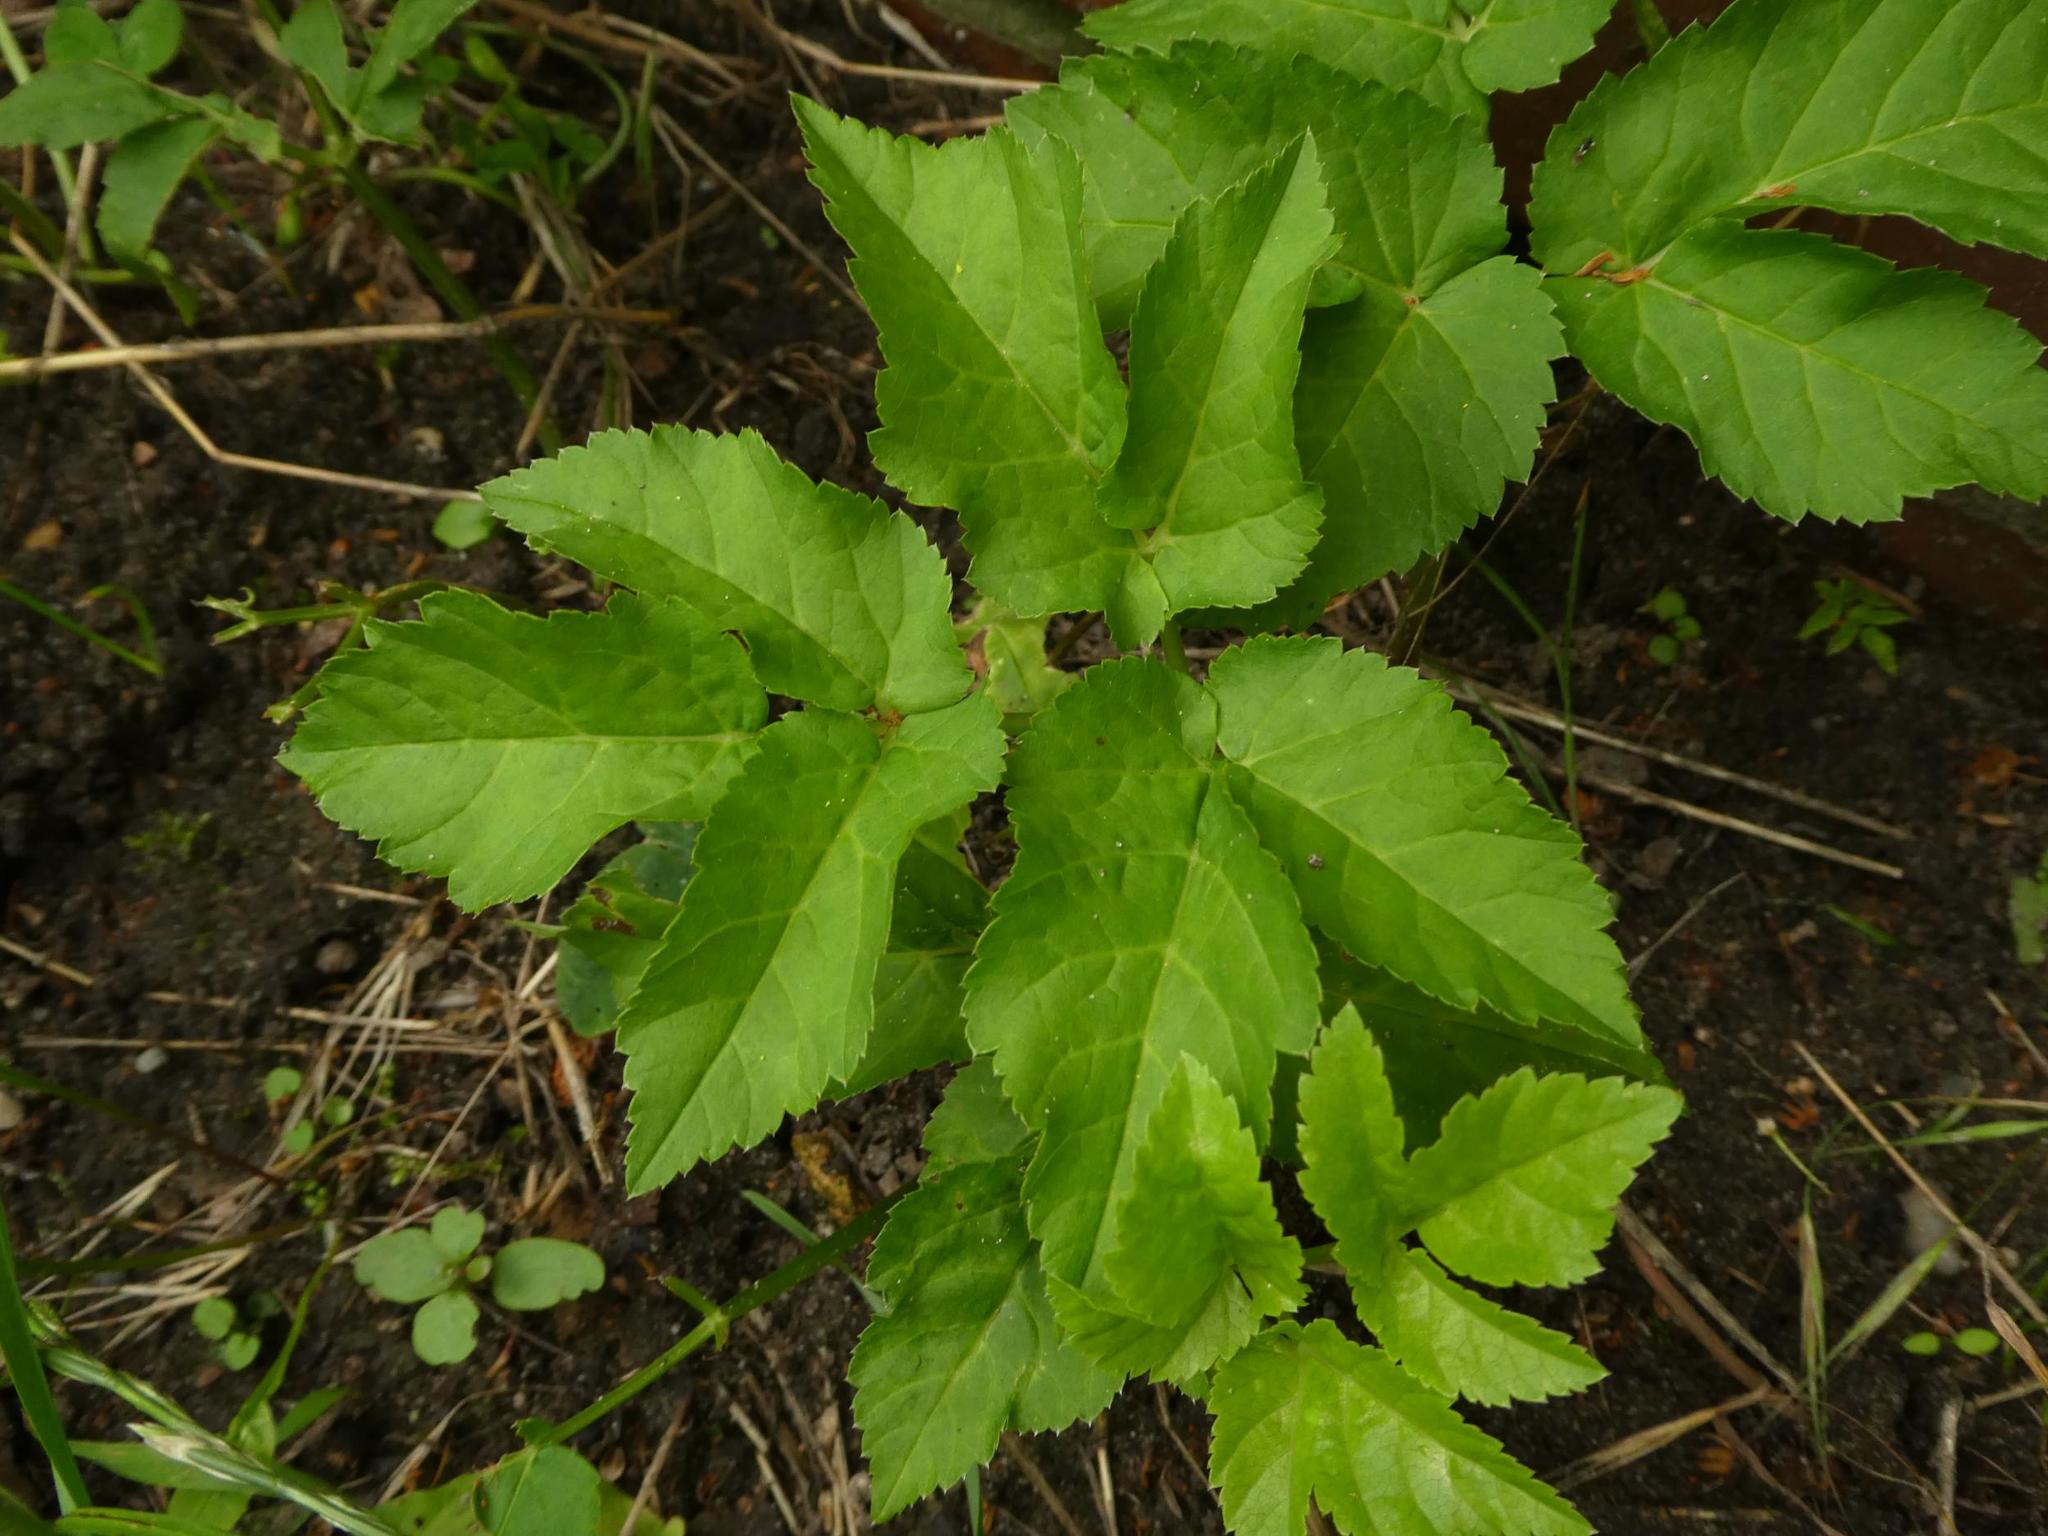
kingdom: Plantae
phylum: Tracheophyta
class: Magnoliopsida
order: Apiales
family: Apiaceae
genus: Aegopodium
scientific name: Aegopodium podagraria
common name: Ground-elder
